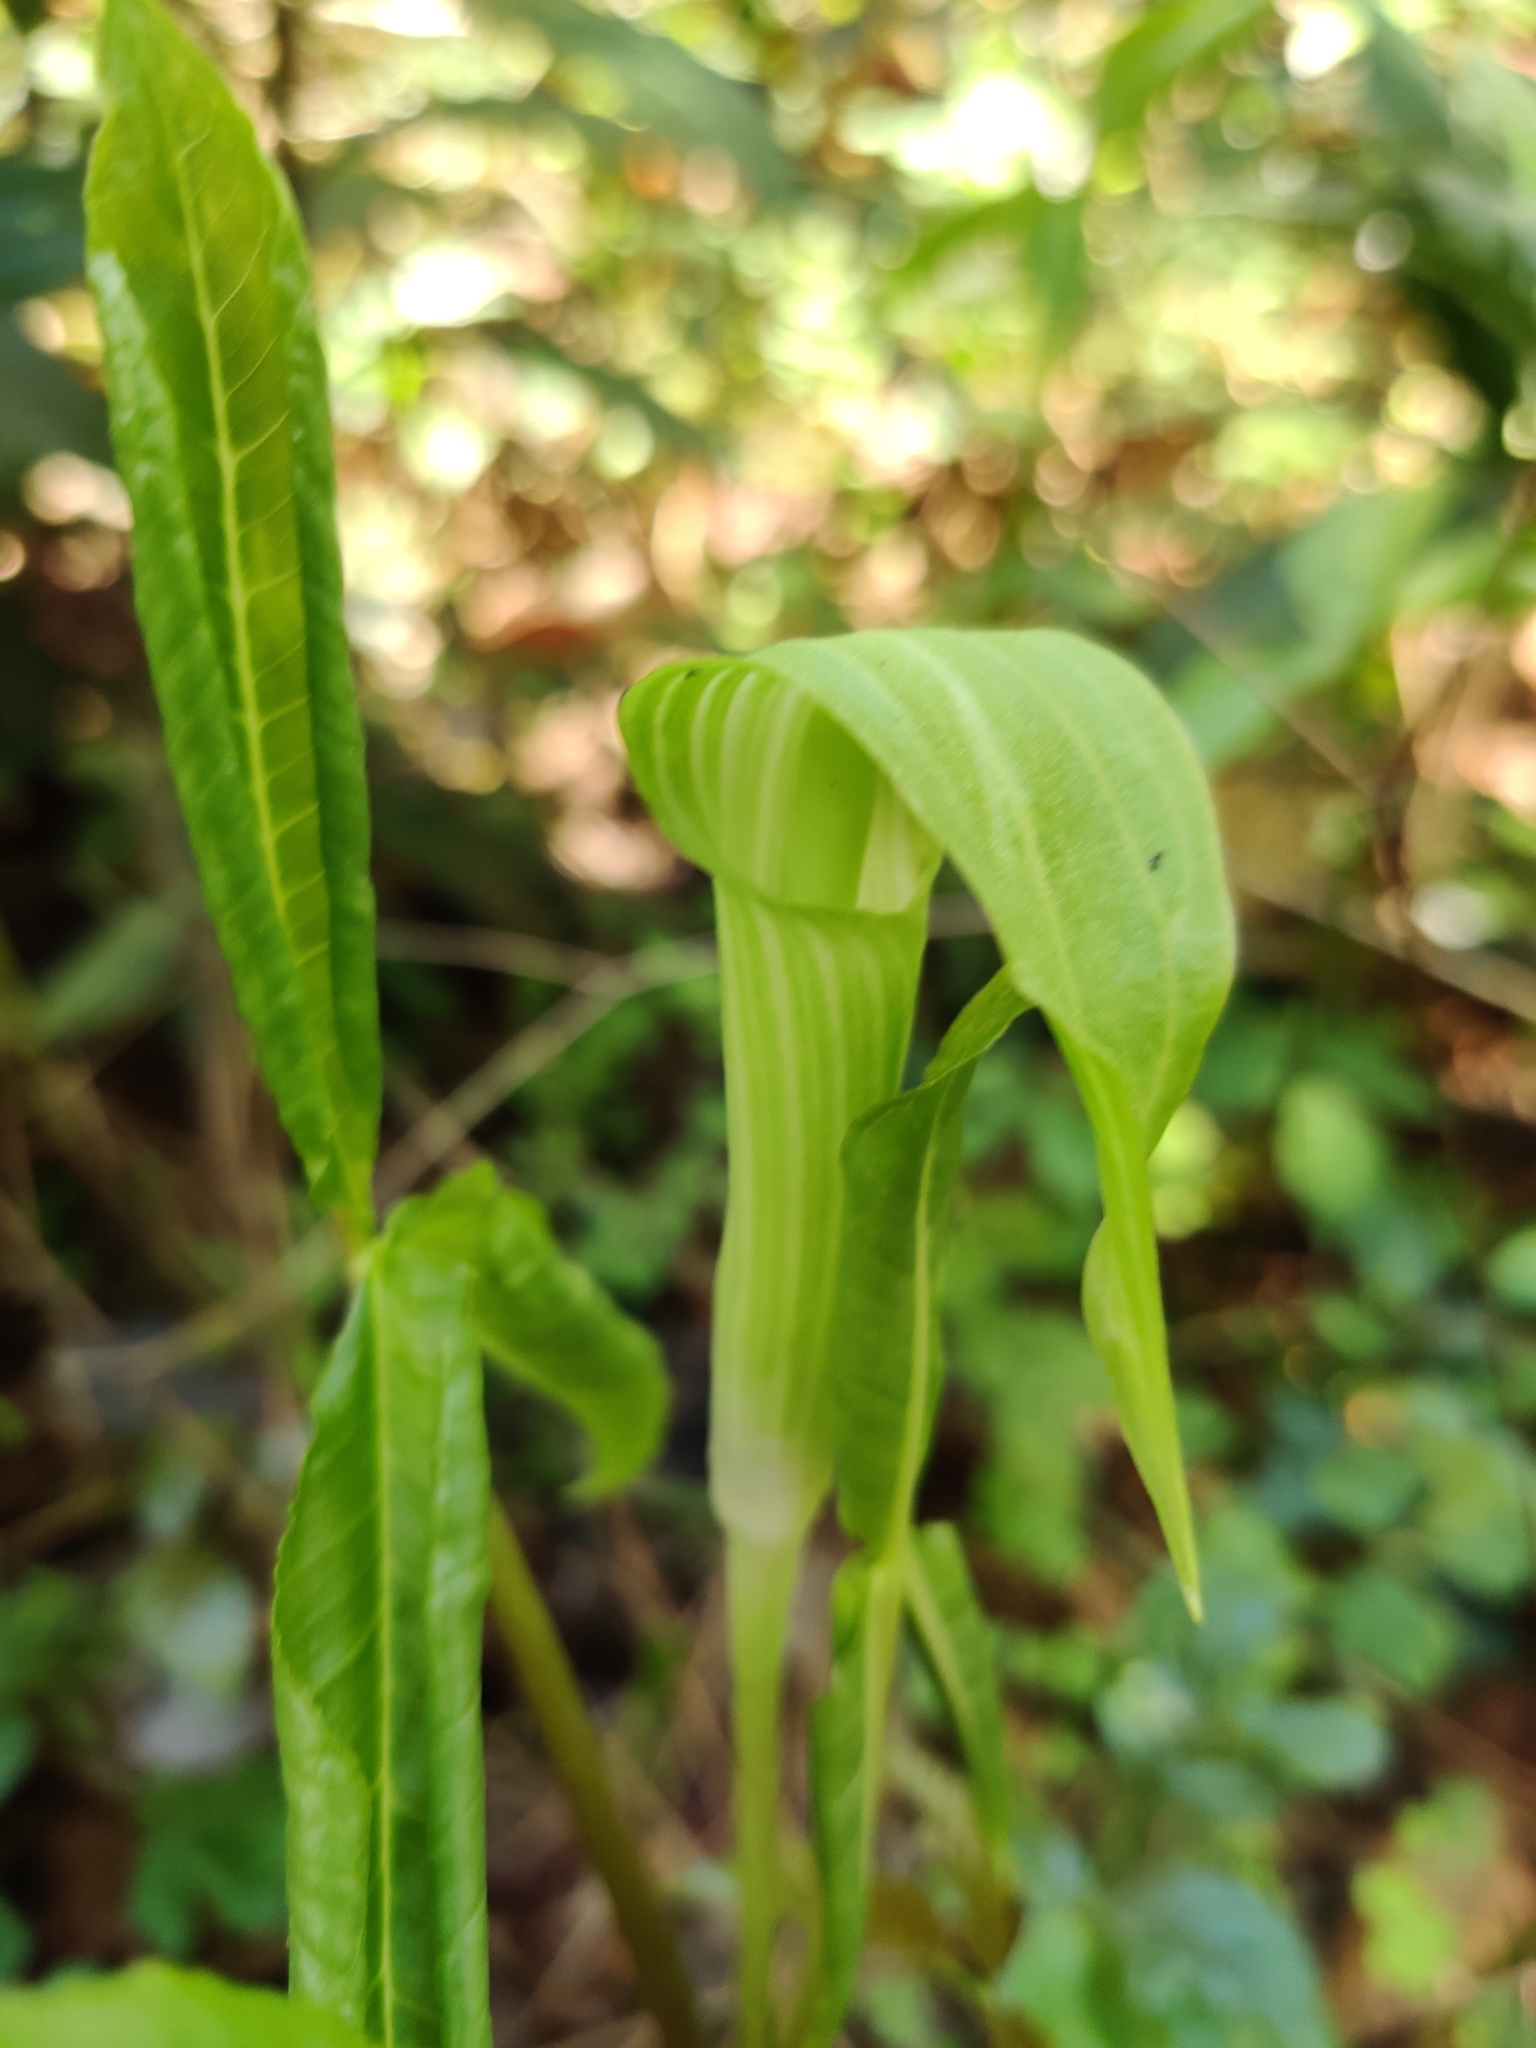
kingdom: Plantae
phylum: Tracheophyta
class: Liliopsida
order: Alismatales
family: Araceae
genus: Arisaema
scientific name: Arisaema acuminatum
